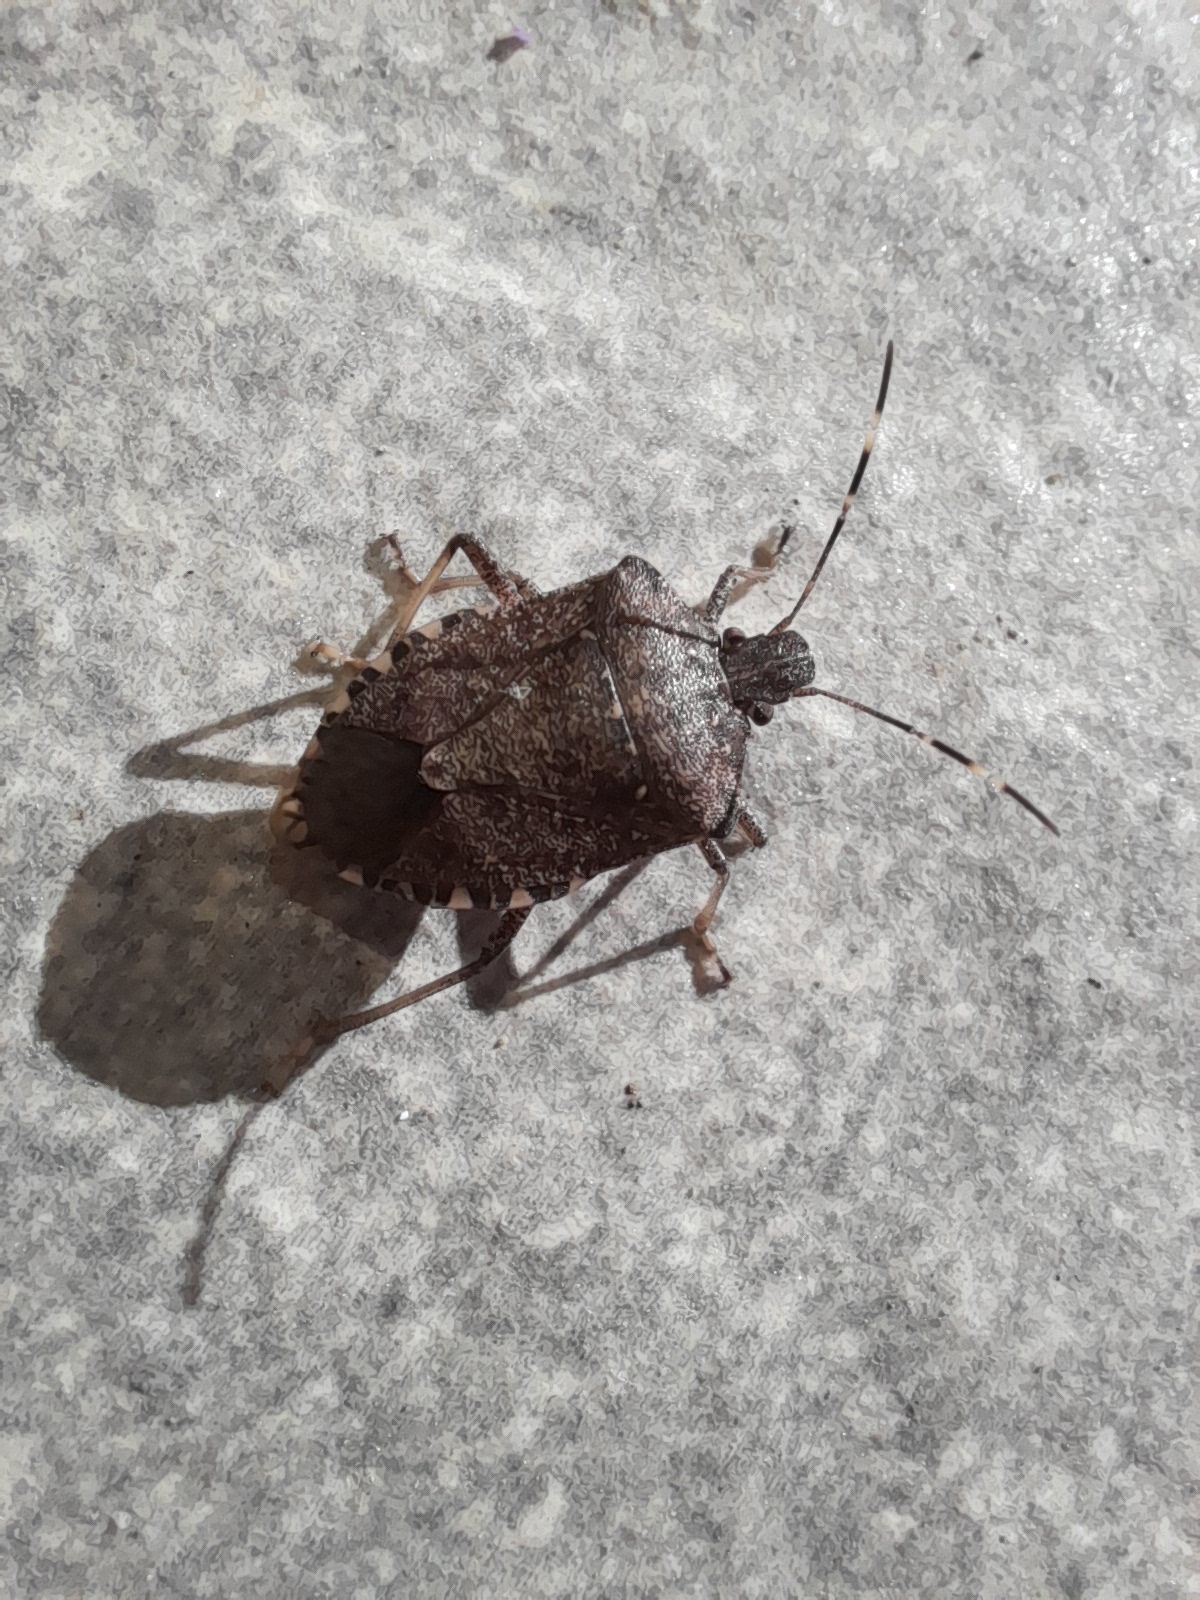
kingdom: Animalia
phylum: Arthropoda
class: Insecta
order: Hemiptera
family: Pentatomidae
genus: Halyomorpha
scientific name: Halyomorpha halys
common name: Brown marmorated stink bug
